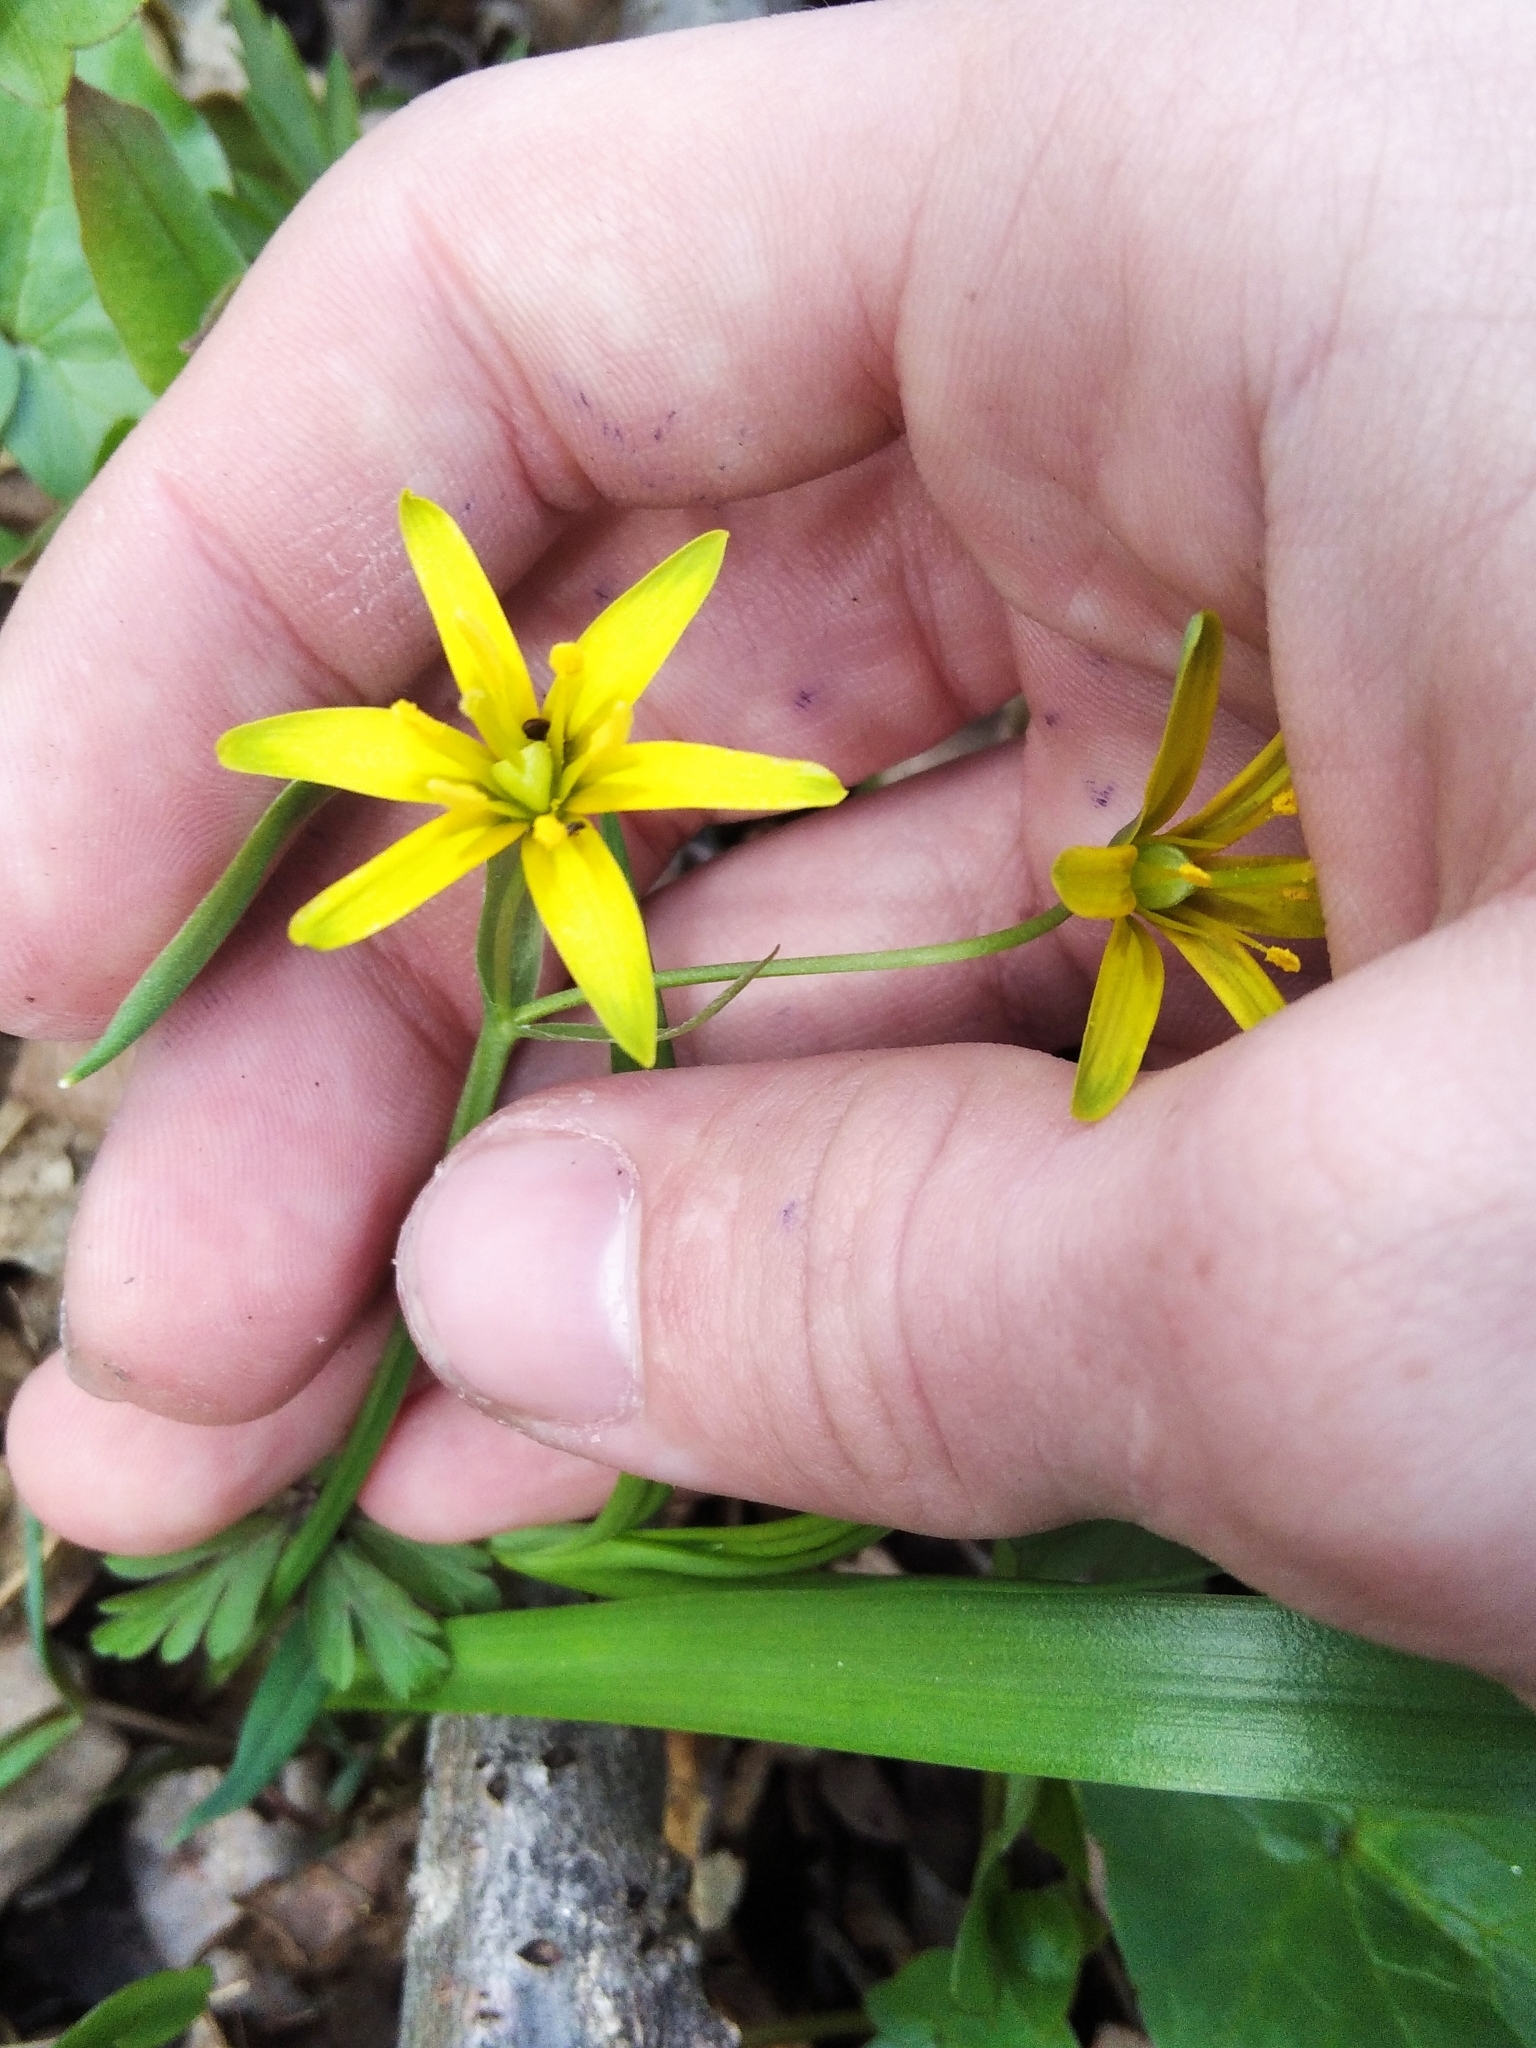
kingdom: Plantae
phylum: Tracheophyta
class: Liliopsida
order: Liliales
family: Liliaceae
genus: Gagea
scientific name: Gagea lutea
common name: Yellow star-of-bethlehem
